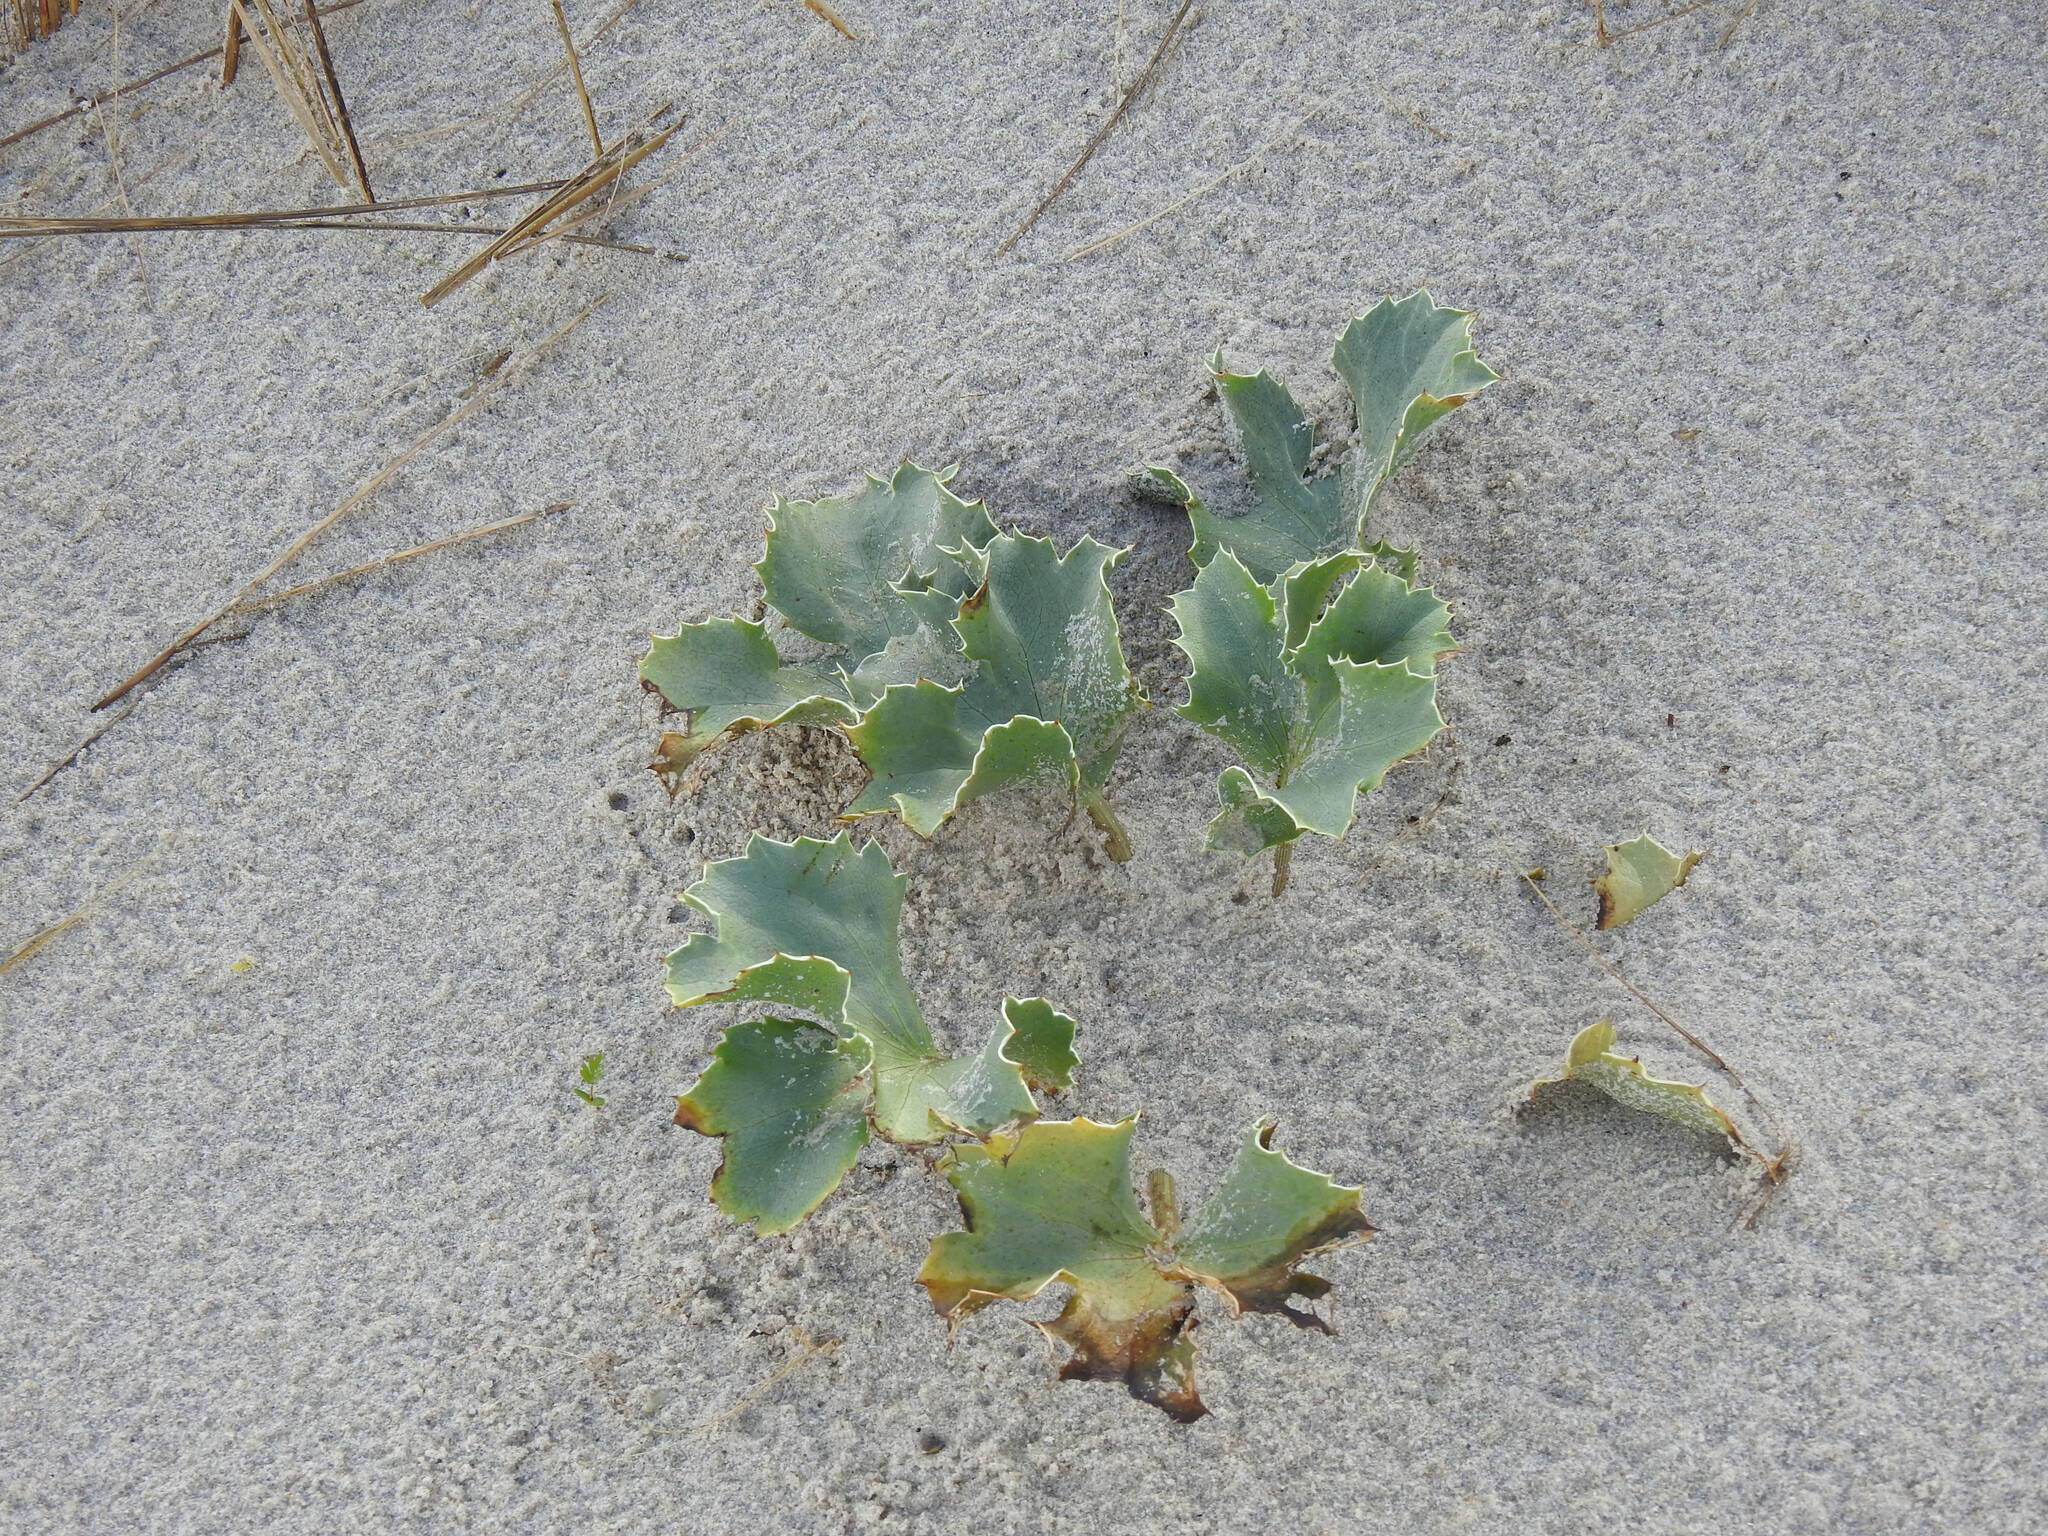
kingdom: Plantae
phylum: Tracheophyta
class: Magnoliopsida
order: Apiales
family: Apiaceae
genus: Eryngium
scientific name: Eryngium maritimum
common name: Sea-holly
